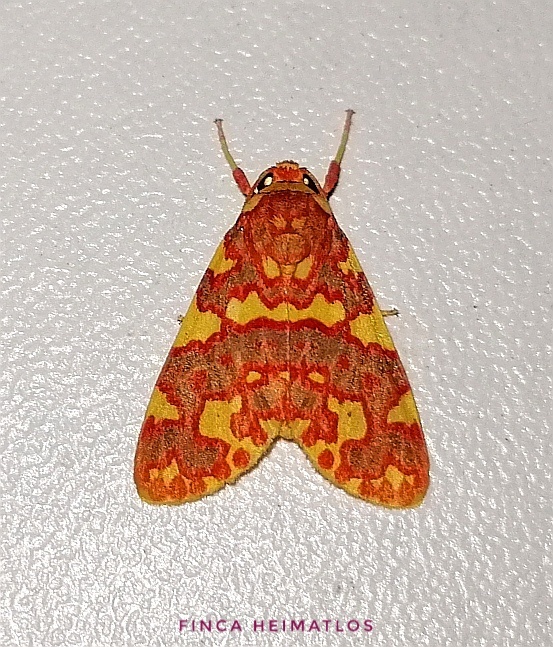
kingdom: Animalia
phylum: Arthropoda
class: Insecta
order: Lepidoptera
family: Erebidae
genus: Hyponerita
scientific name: Hyponerita persimilis
